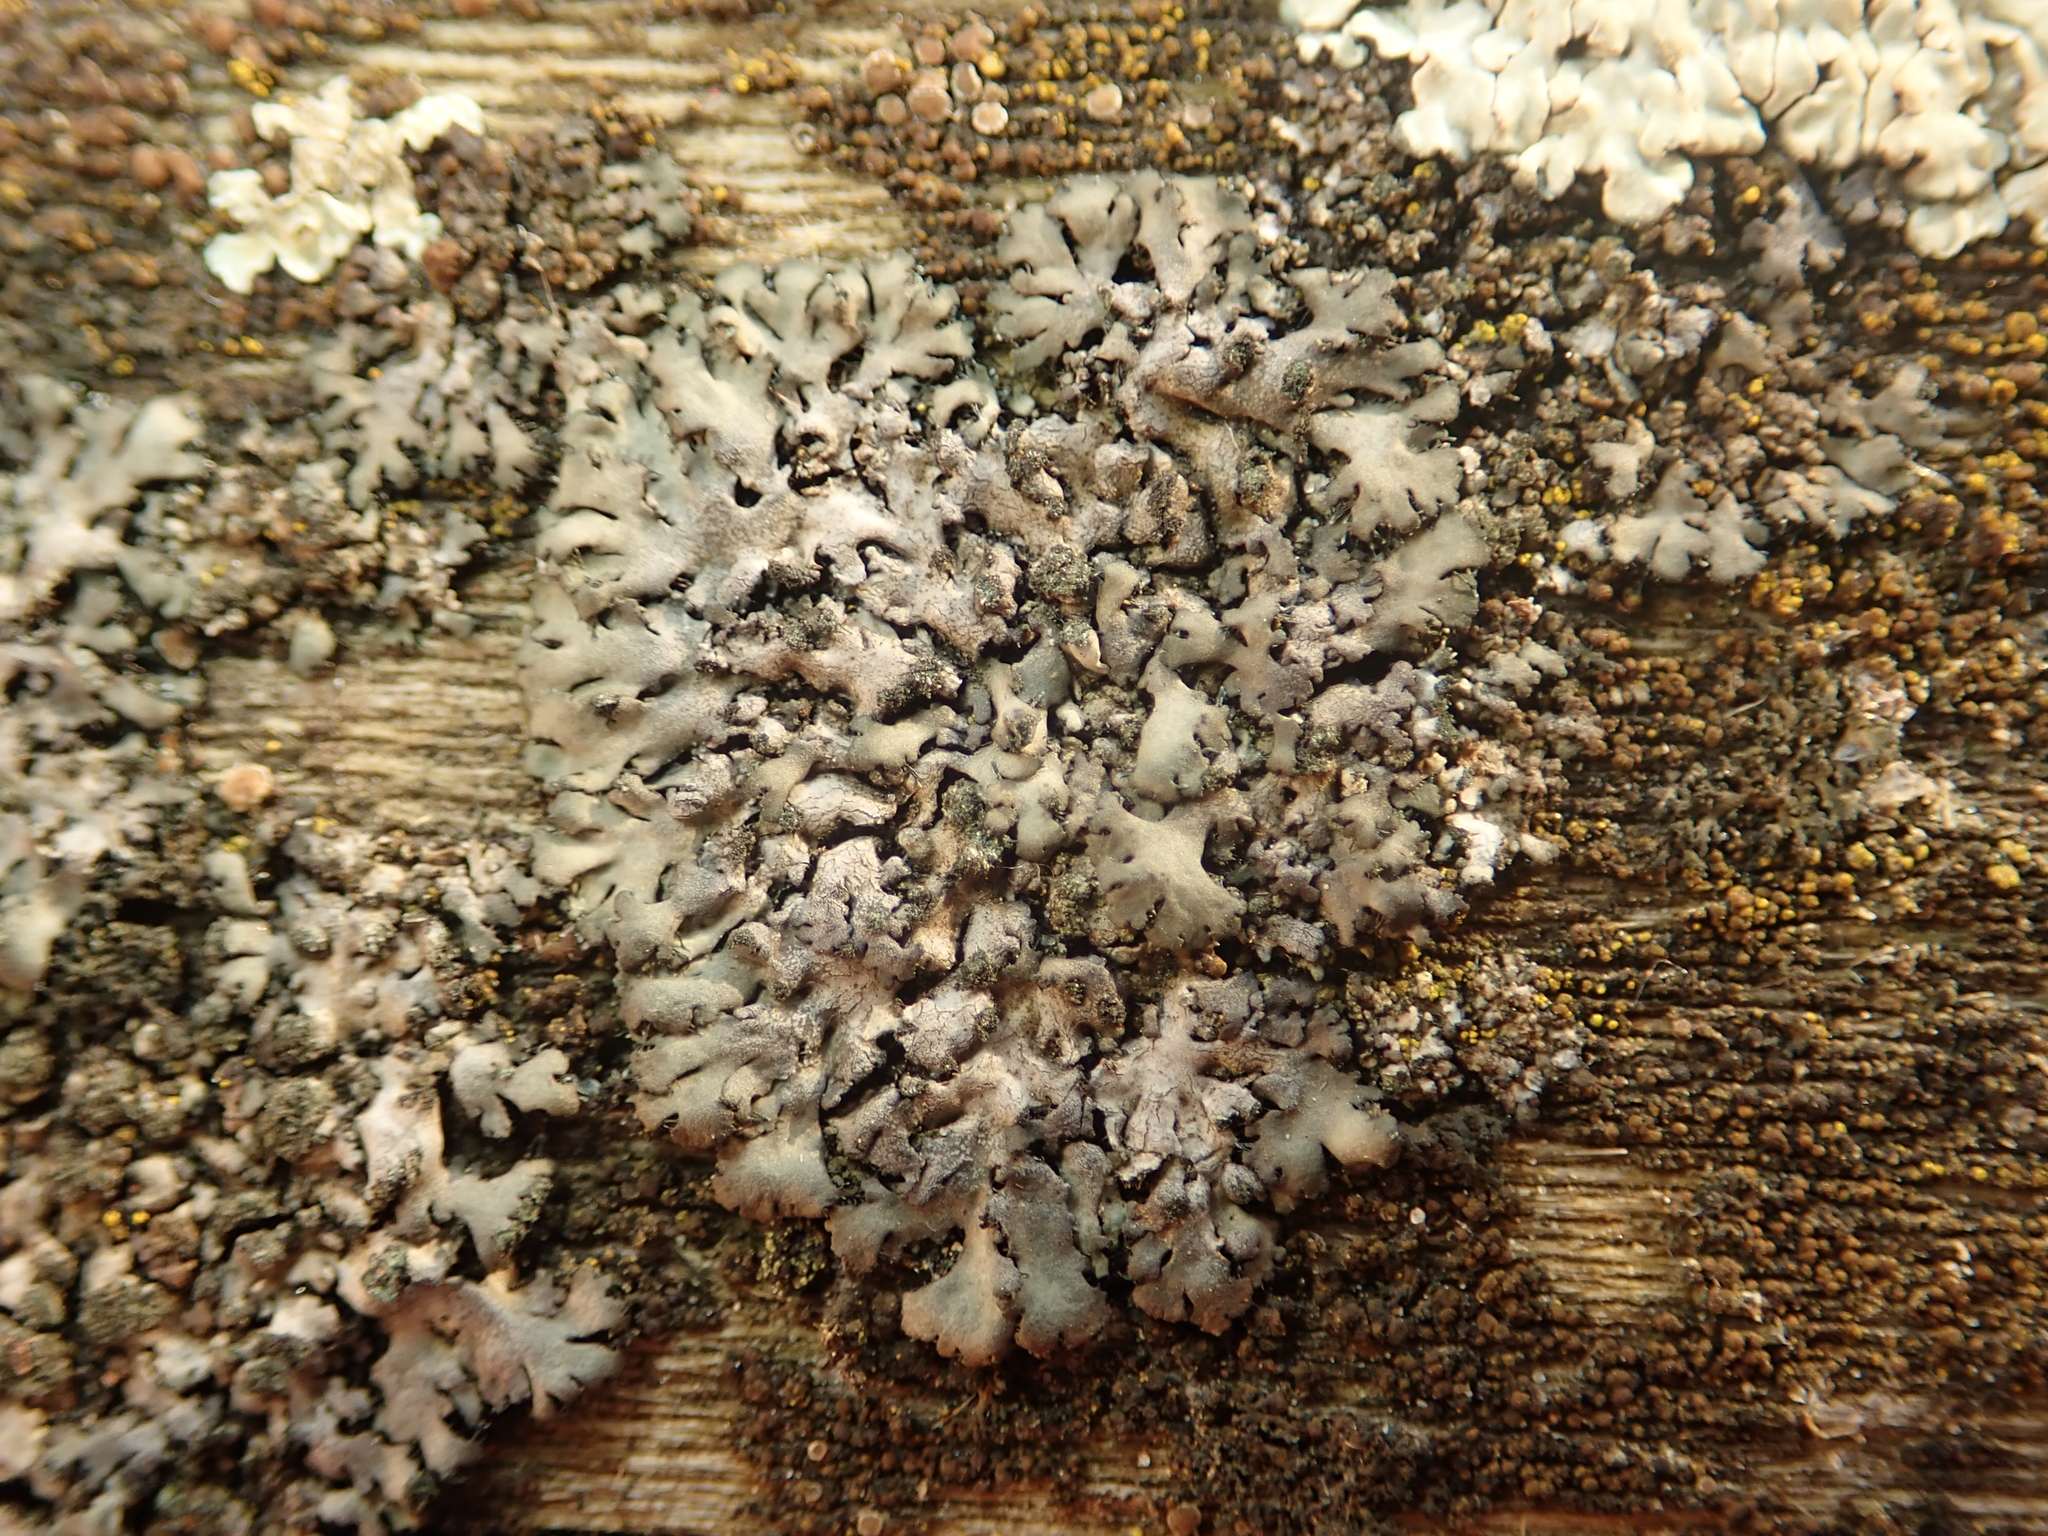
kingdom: Fungi
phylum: Ascomycota
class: Lecanoromycetes
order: Caliciales
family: Physciaceae
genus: Phaeophyscia
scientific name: Phaeophyscia orbicularis
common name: Mealy shadow lichen
